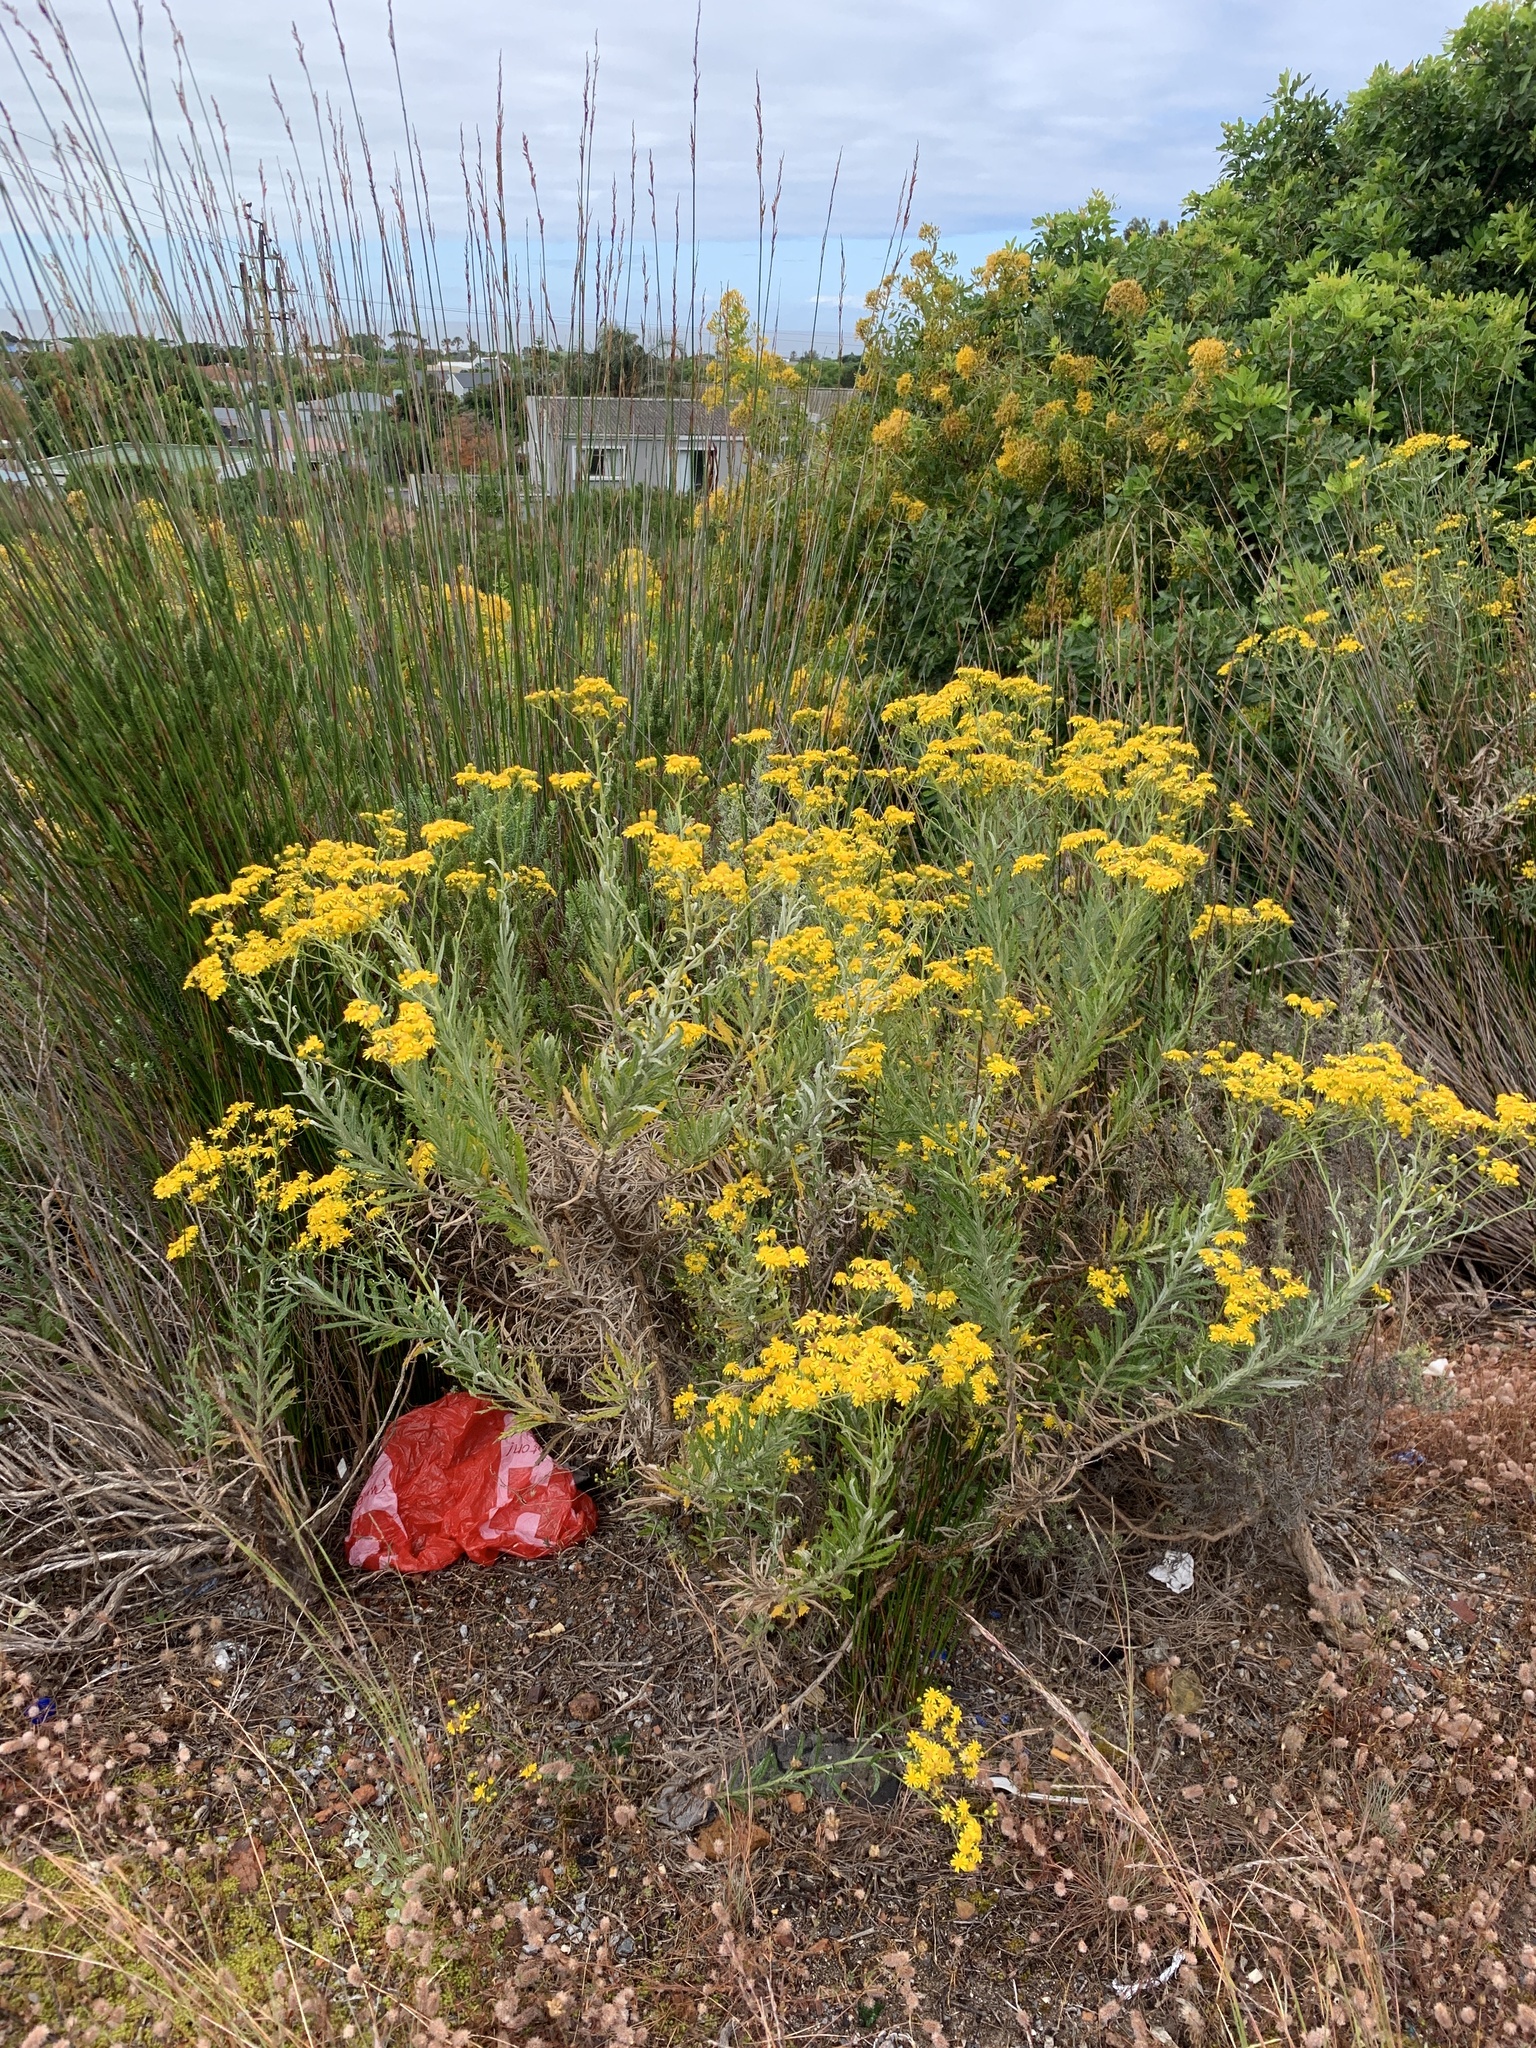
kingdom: Plantae
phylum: Tracheophyta
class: Magnoliopsida
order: Asterales
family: Asteraceae
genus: Senecio
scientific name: Senecio pterophorus
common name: Shoddy ragwort
